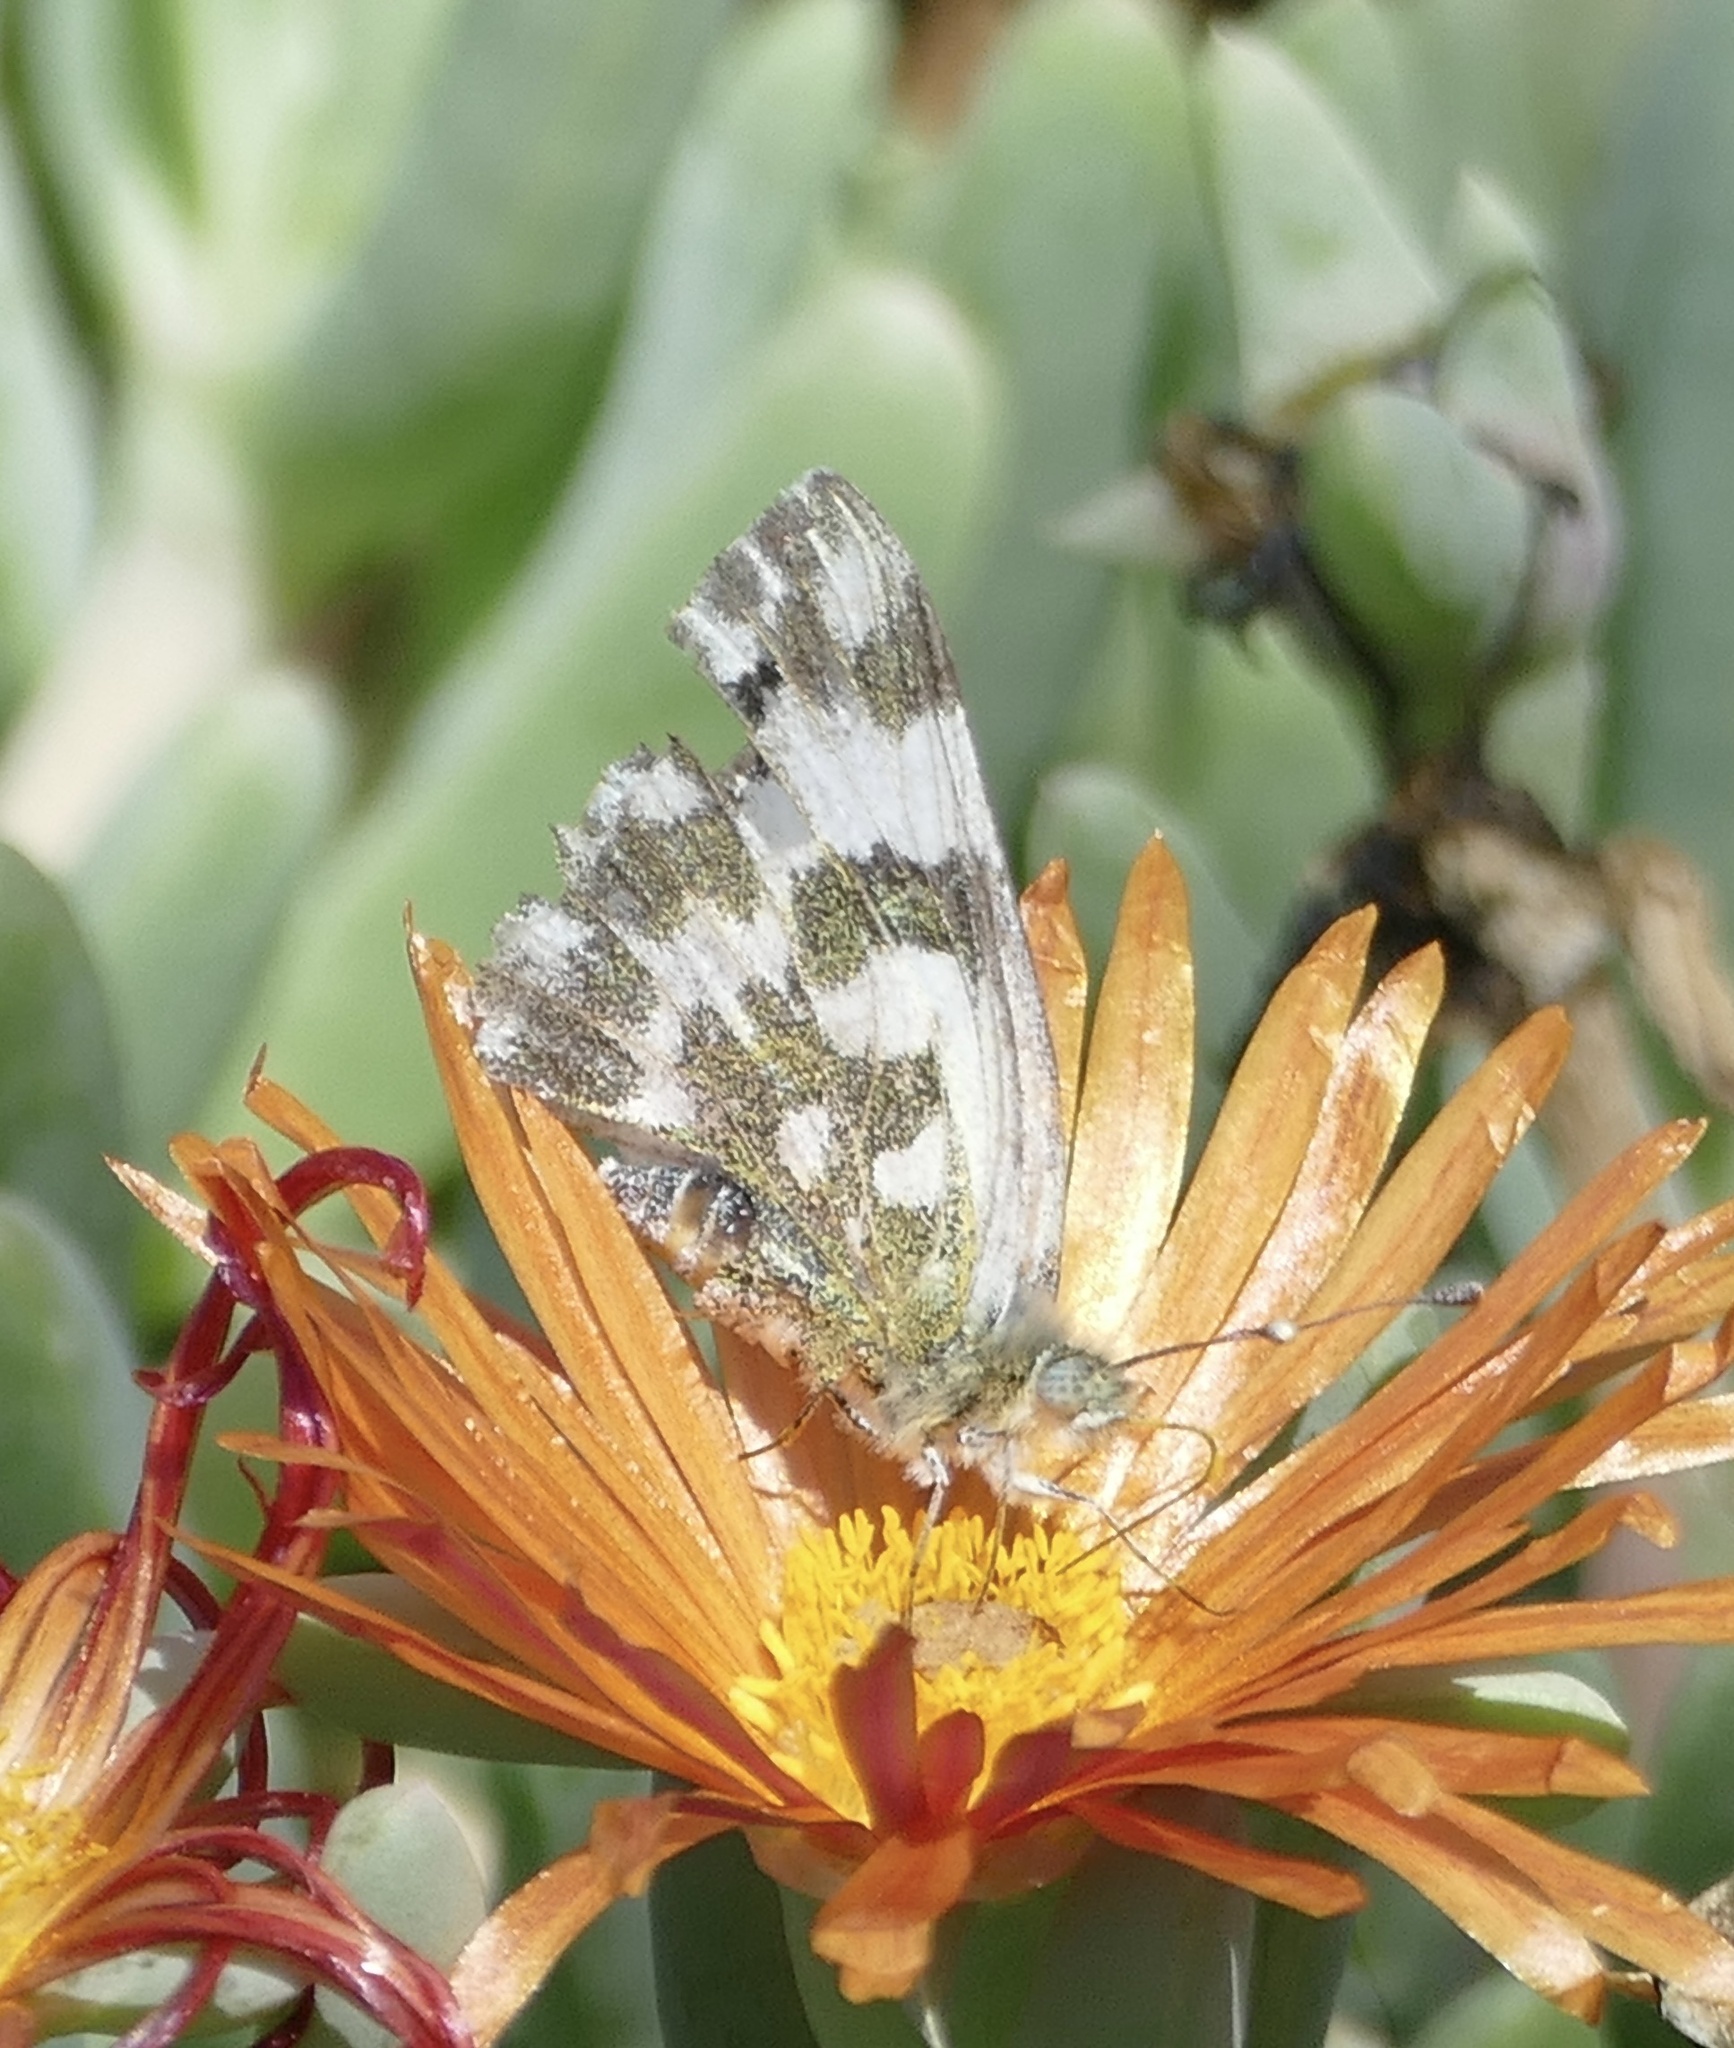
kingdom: Animalia
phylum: Arthropoda
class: Insecta
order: Lepidoptera
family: Pieridae
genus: Pontia
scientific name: Pontia daplidice
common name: Bath white
